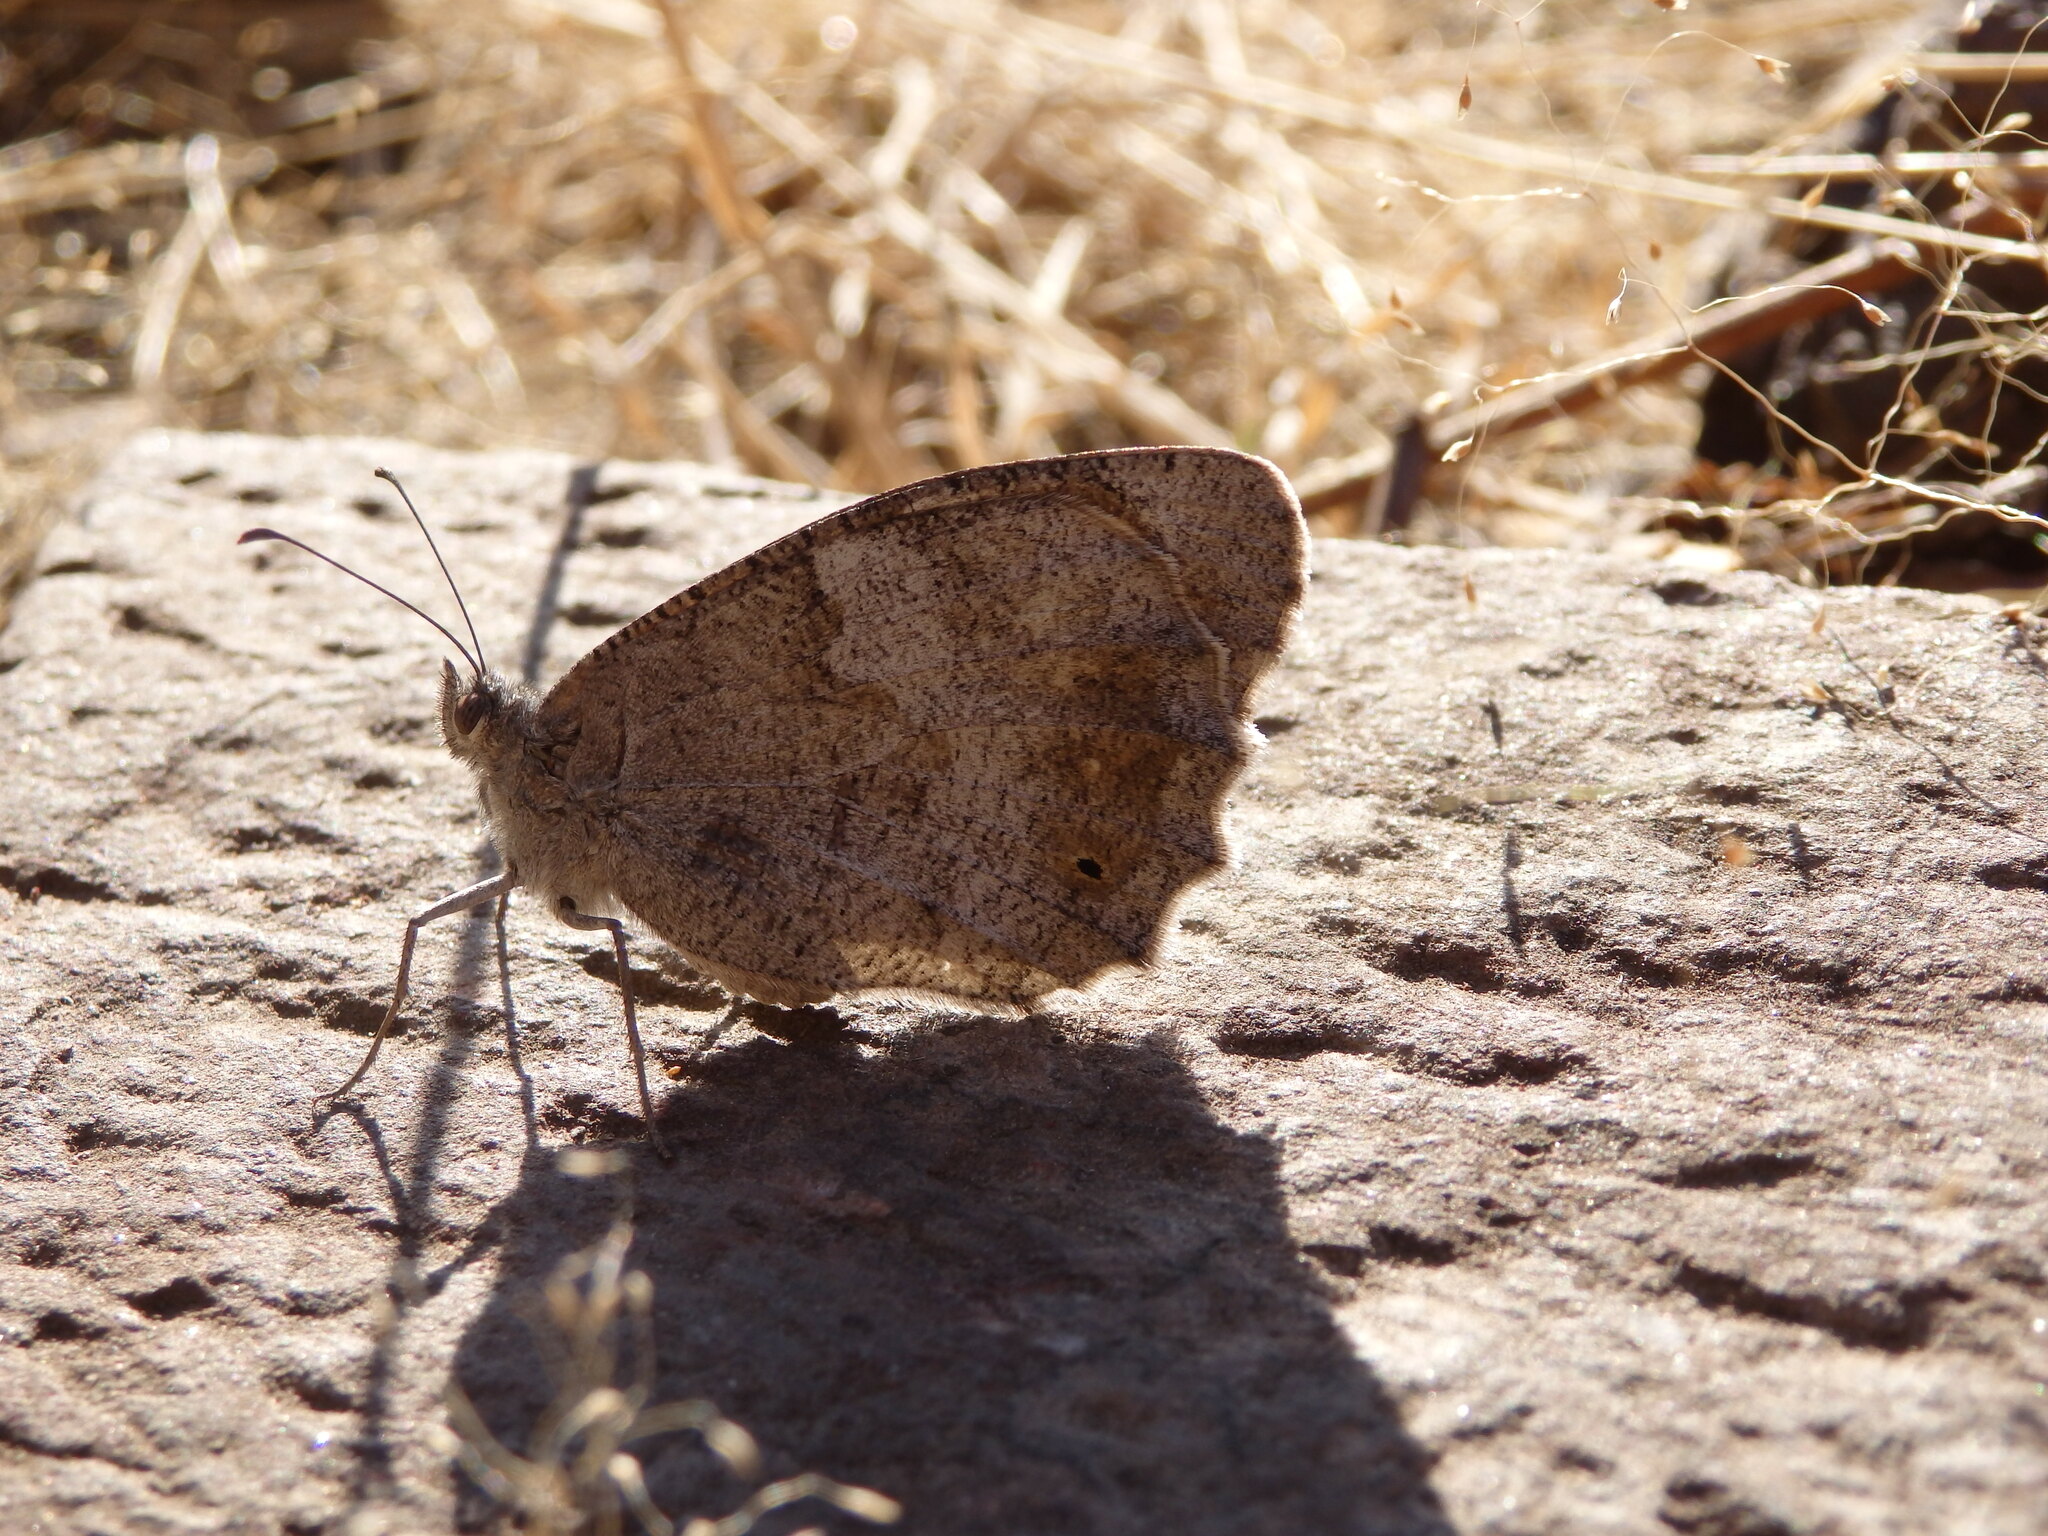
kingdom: Animalia
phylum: Arthropoda
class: Insecta
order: Lepidoptera
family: Nymphalidae
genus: Hipparchia
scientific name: Hipparchia statilinus
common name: Tree grayling
